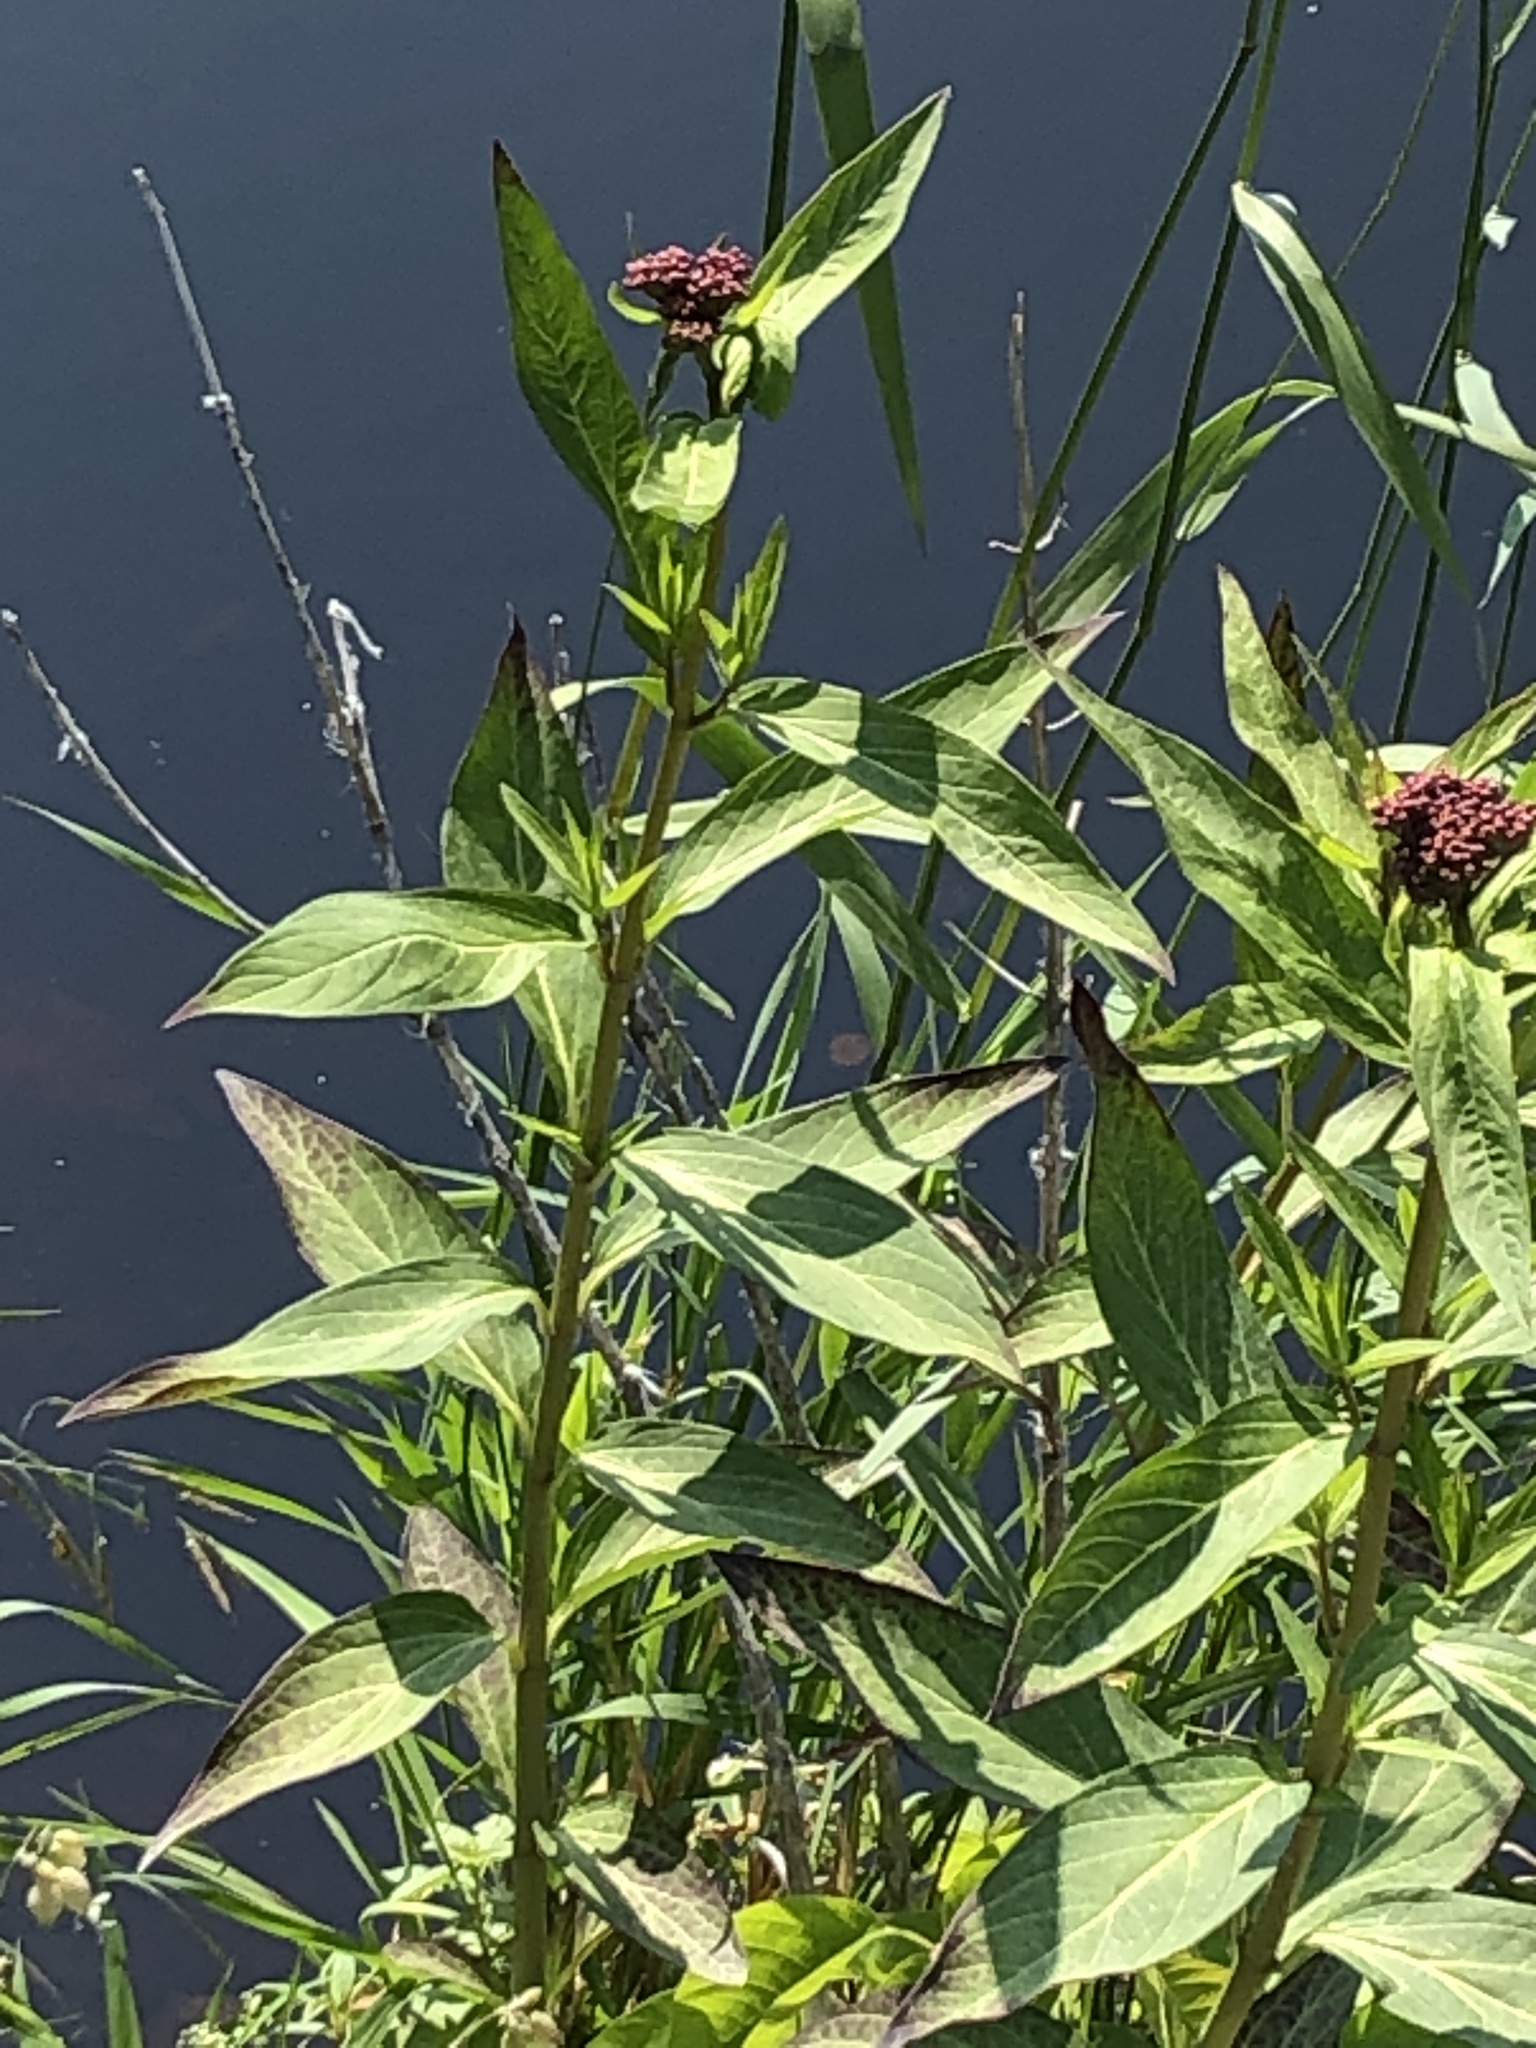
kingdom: Plantae
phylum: Tracheophyta
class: Magnoliopsida
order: Gentianales
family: Apocynaceae
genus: Asclepias
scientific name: Asclepias incarnata
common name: Swamp milkweed
